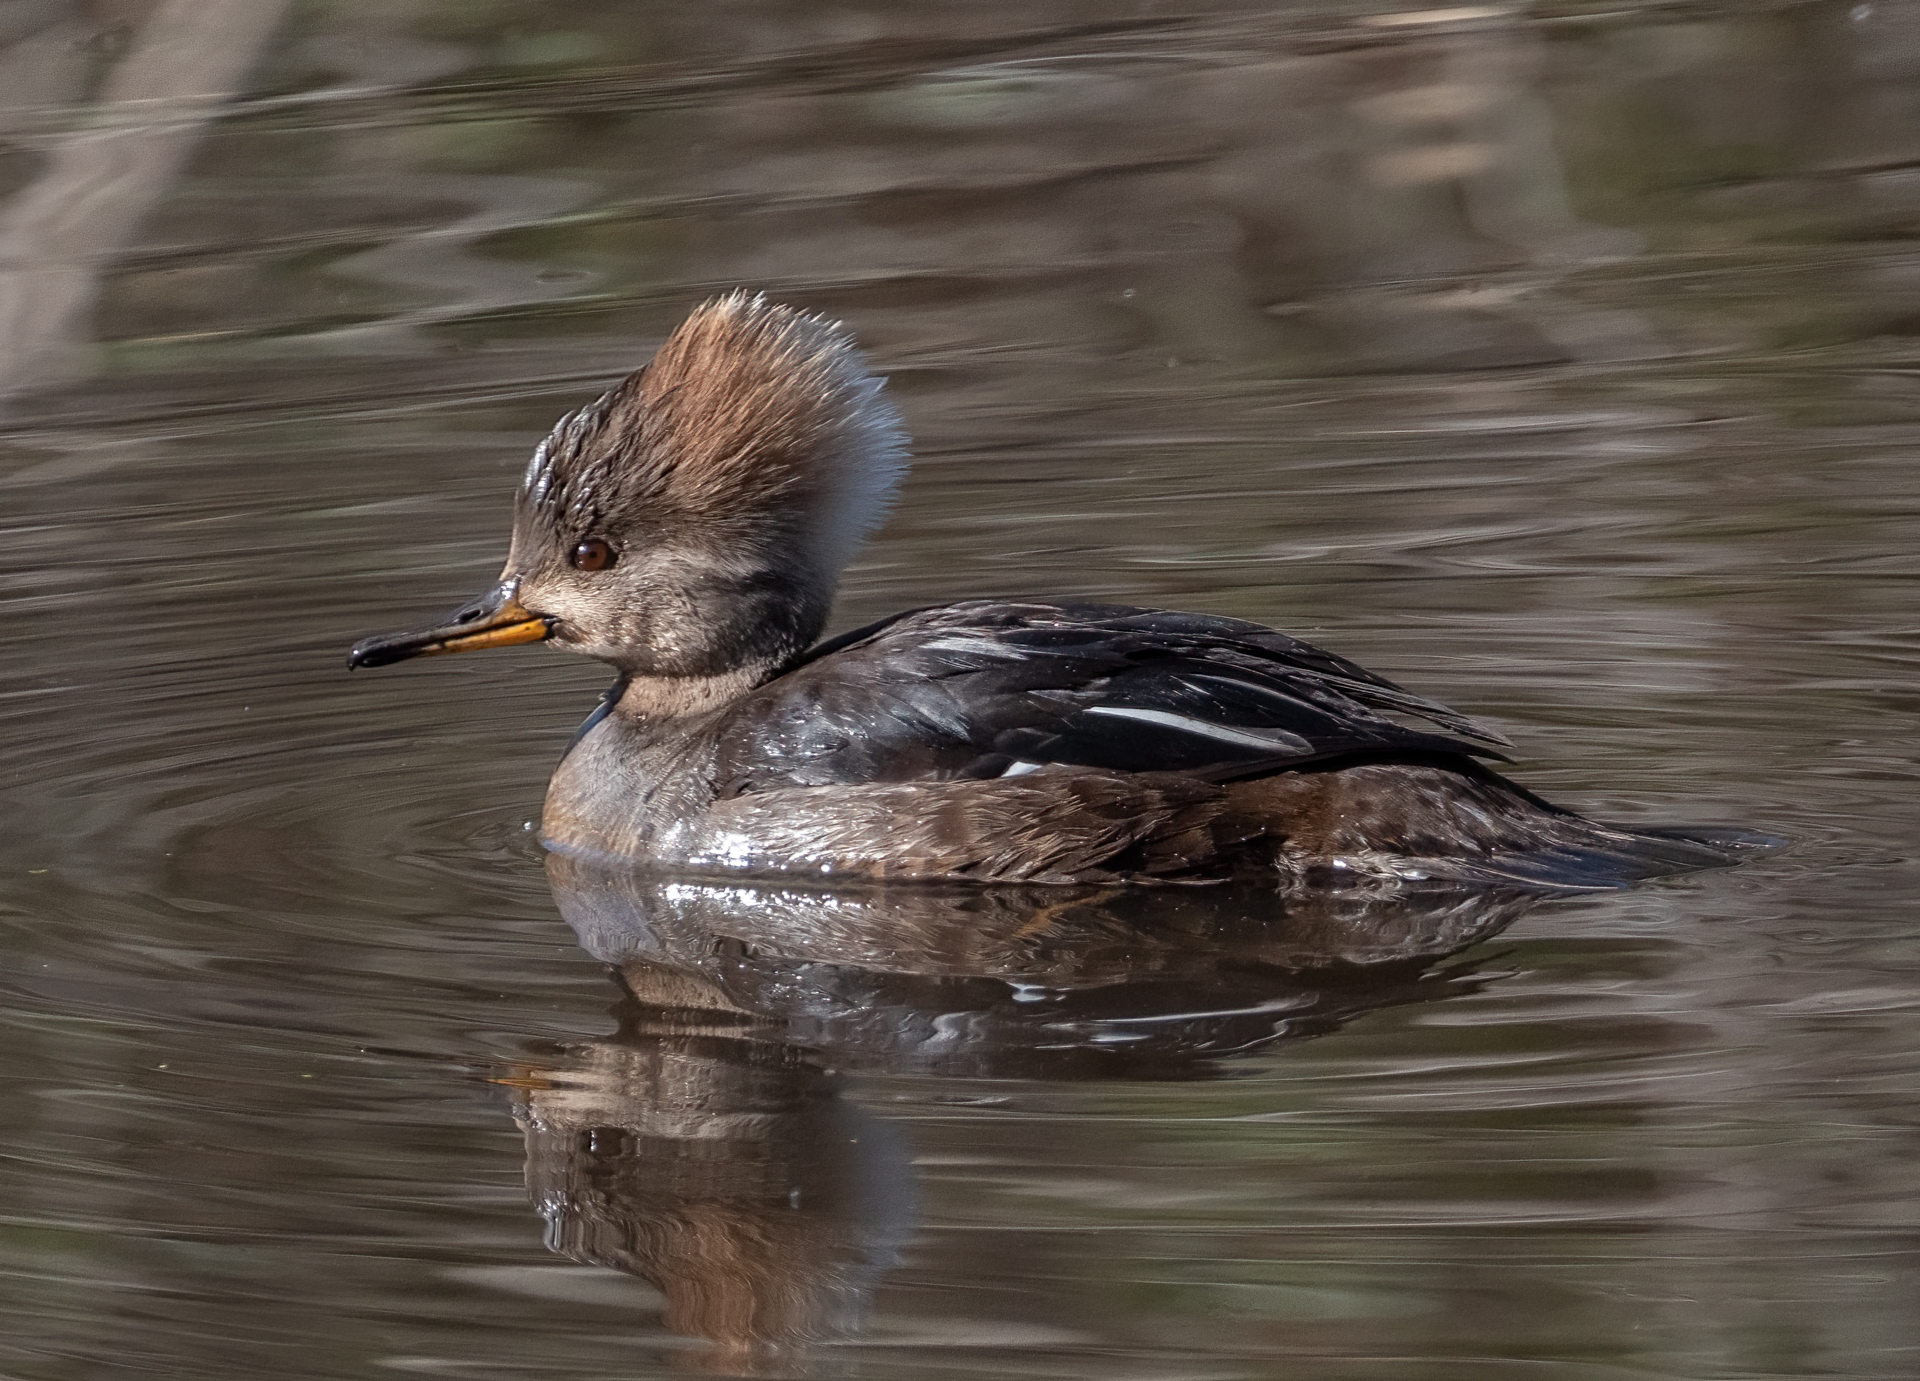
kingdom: Animalia
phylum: Chordata
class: Aves
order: Anseriformes
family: Anatidae
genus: Lophodytes
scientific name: Lophodytes cucullatus
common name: Hooded merganser
